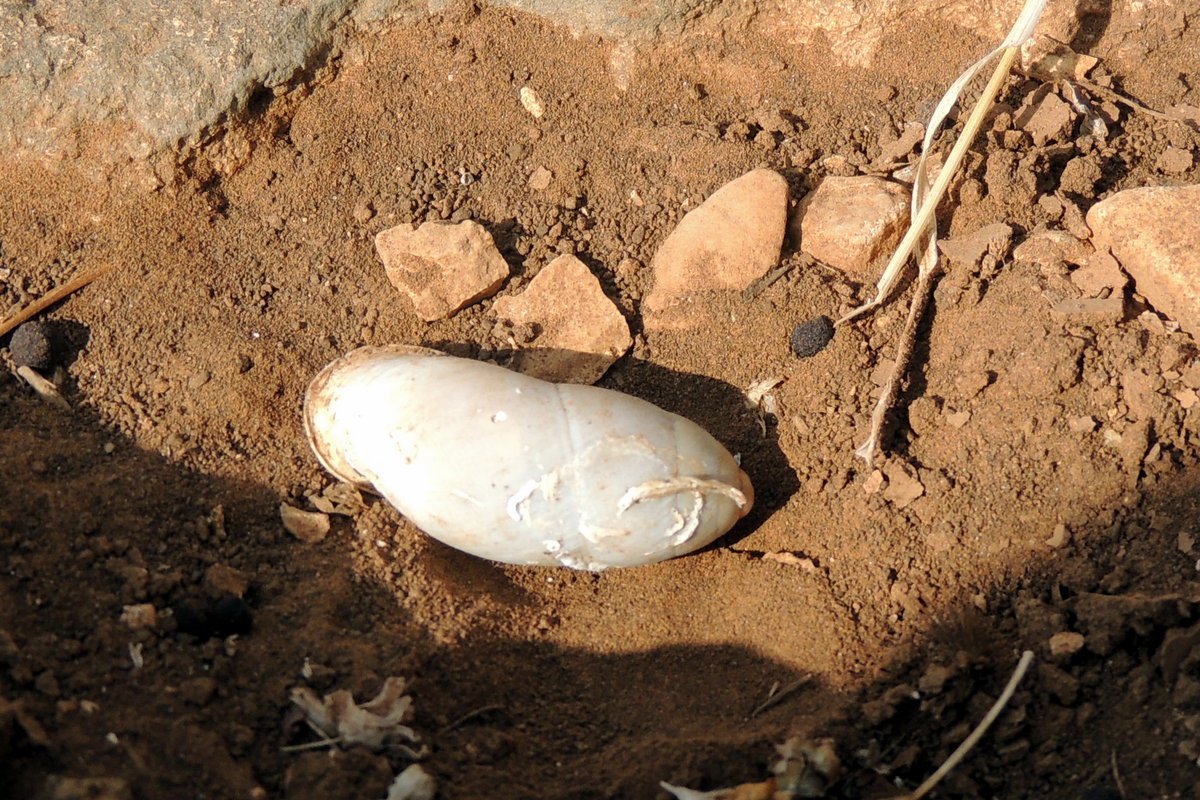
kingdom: Animalia
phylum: Mollusca
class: Gastropoda
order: Stylommatophora
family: Enidae
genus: Buliminus
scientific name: Buliminus labrosus
